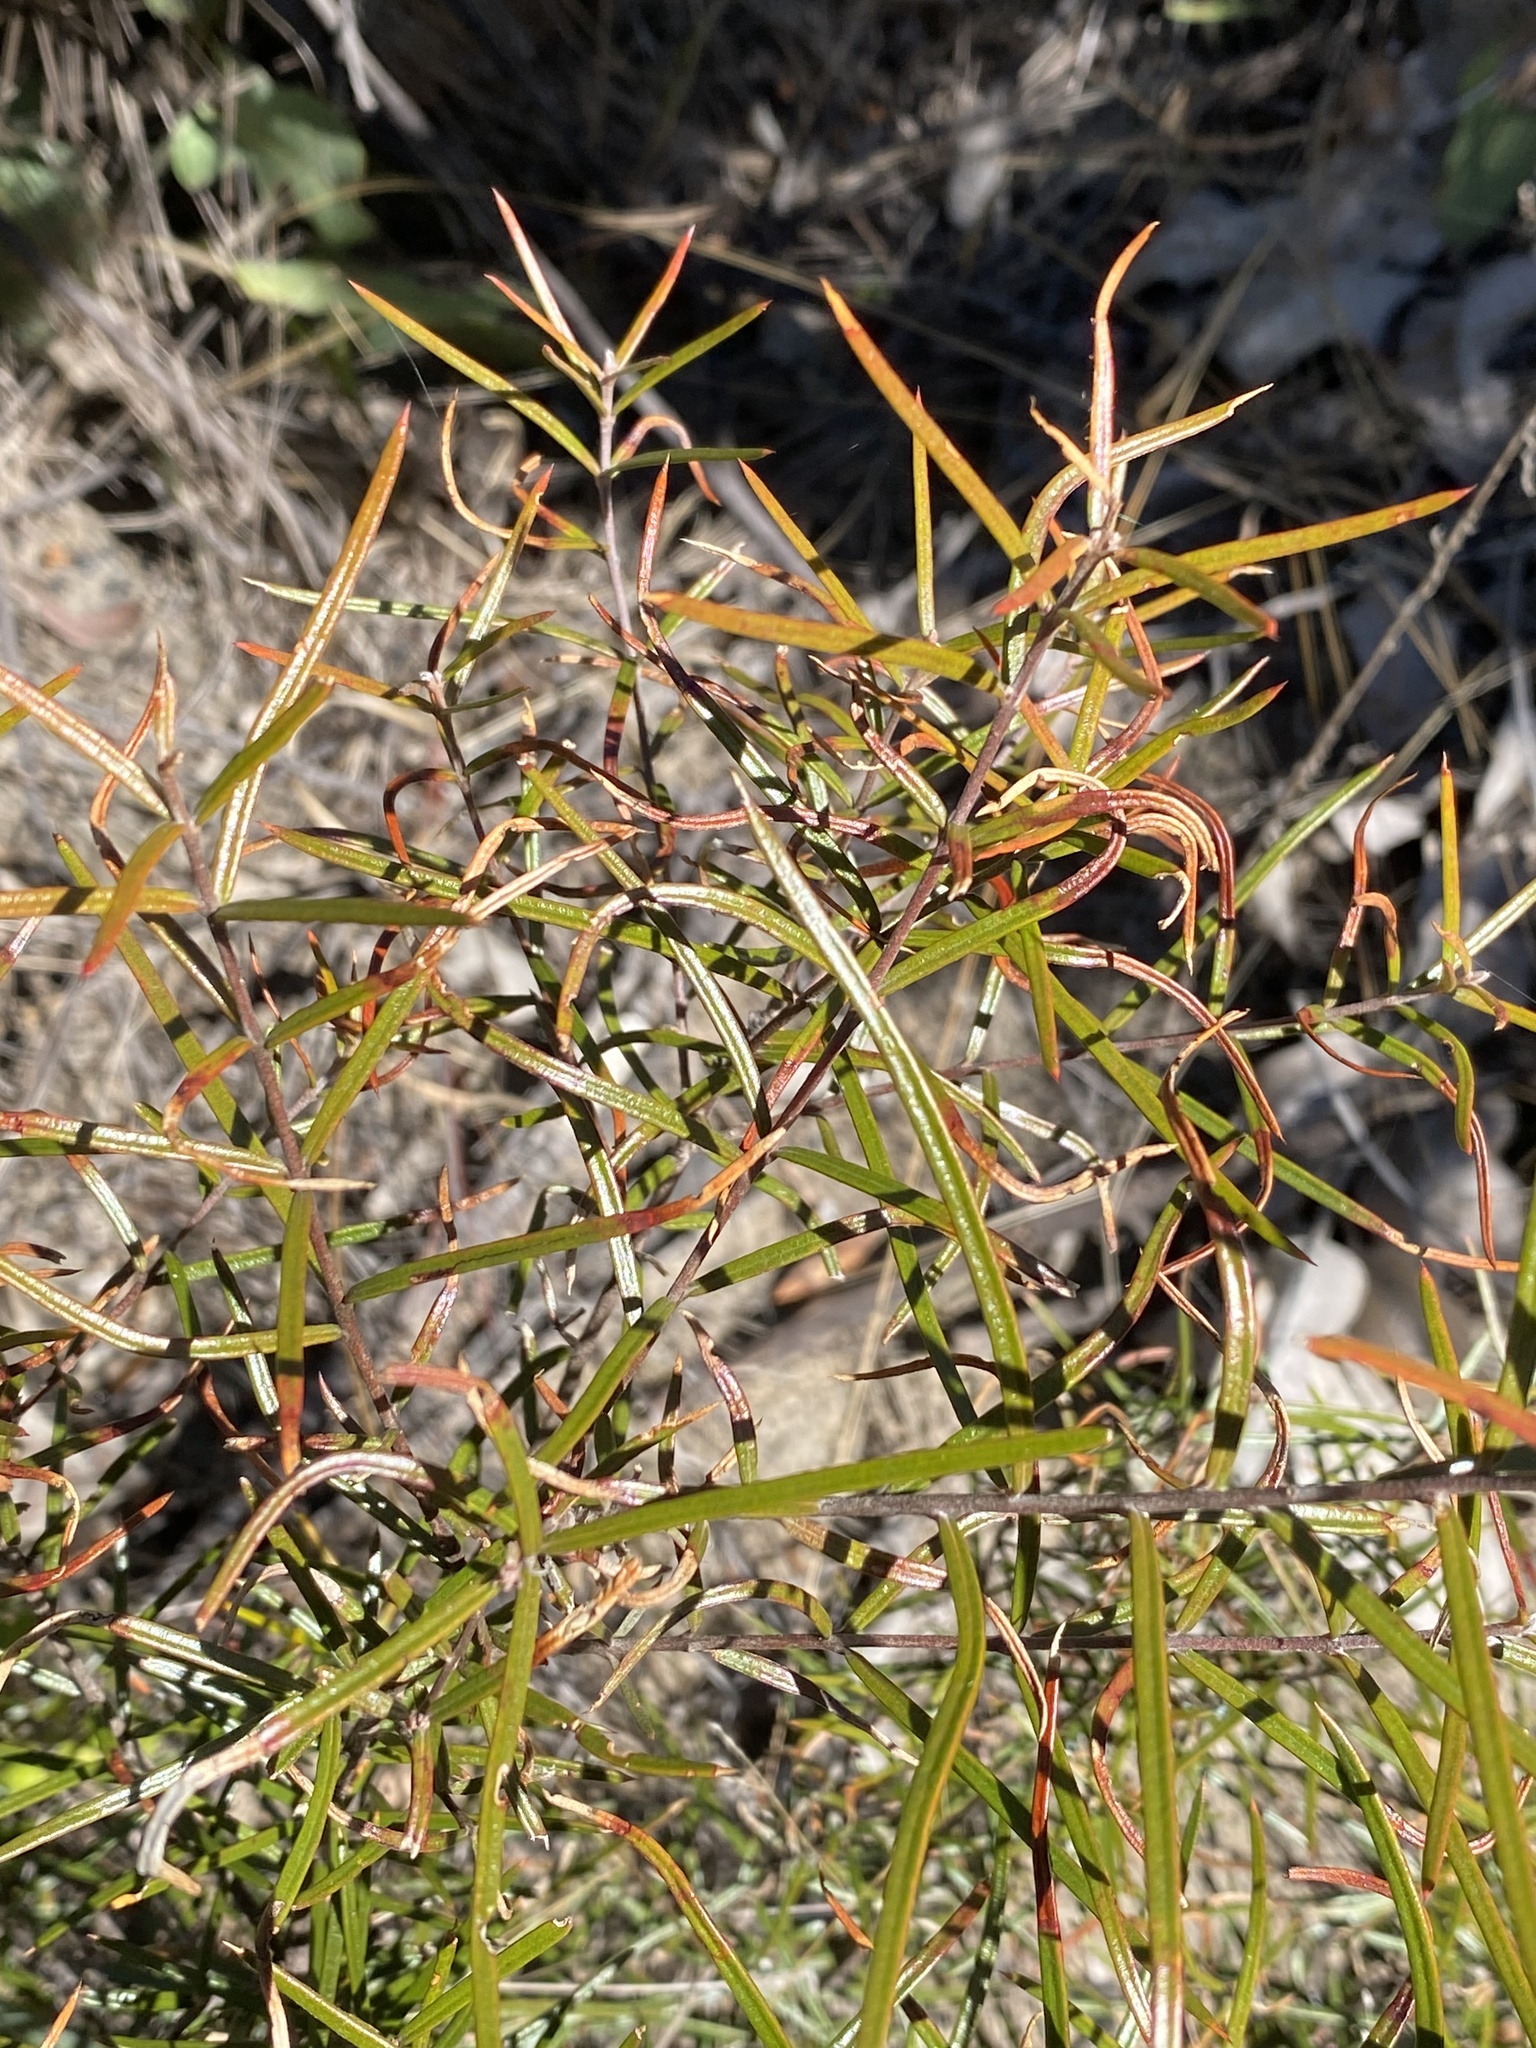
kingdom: Plantae
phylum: Tracheophyta
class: Magnoliopsida
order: Myrtales
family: Myrtaceae
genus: Lysicarpus
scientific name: Lysicarpus angustifolius
